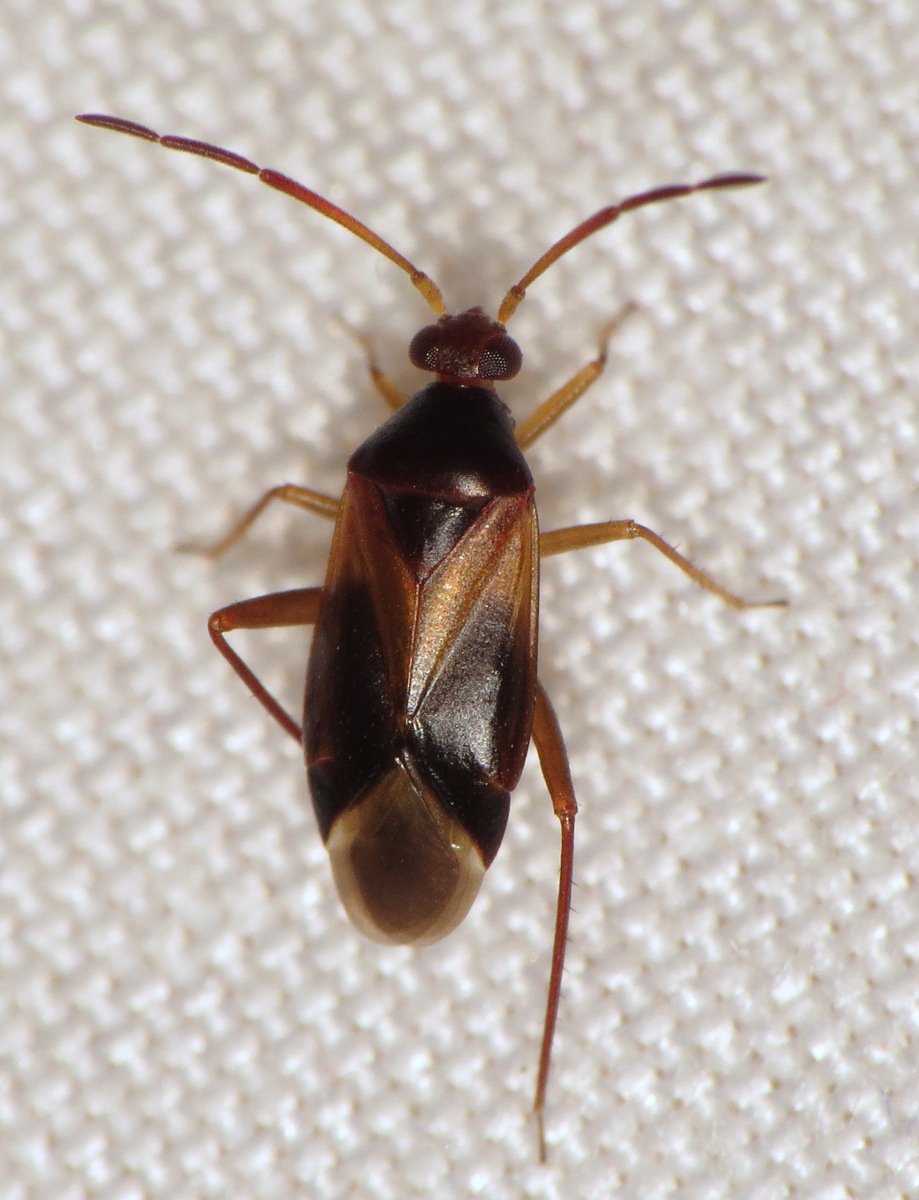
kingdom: Animalia
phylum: Arthropoda
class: Insecta
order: Hemiptera
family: Miridae
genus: Ceratocapsus
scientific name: Ceratocapsus modestus
